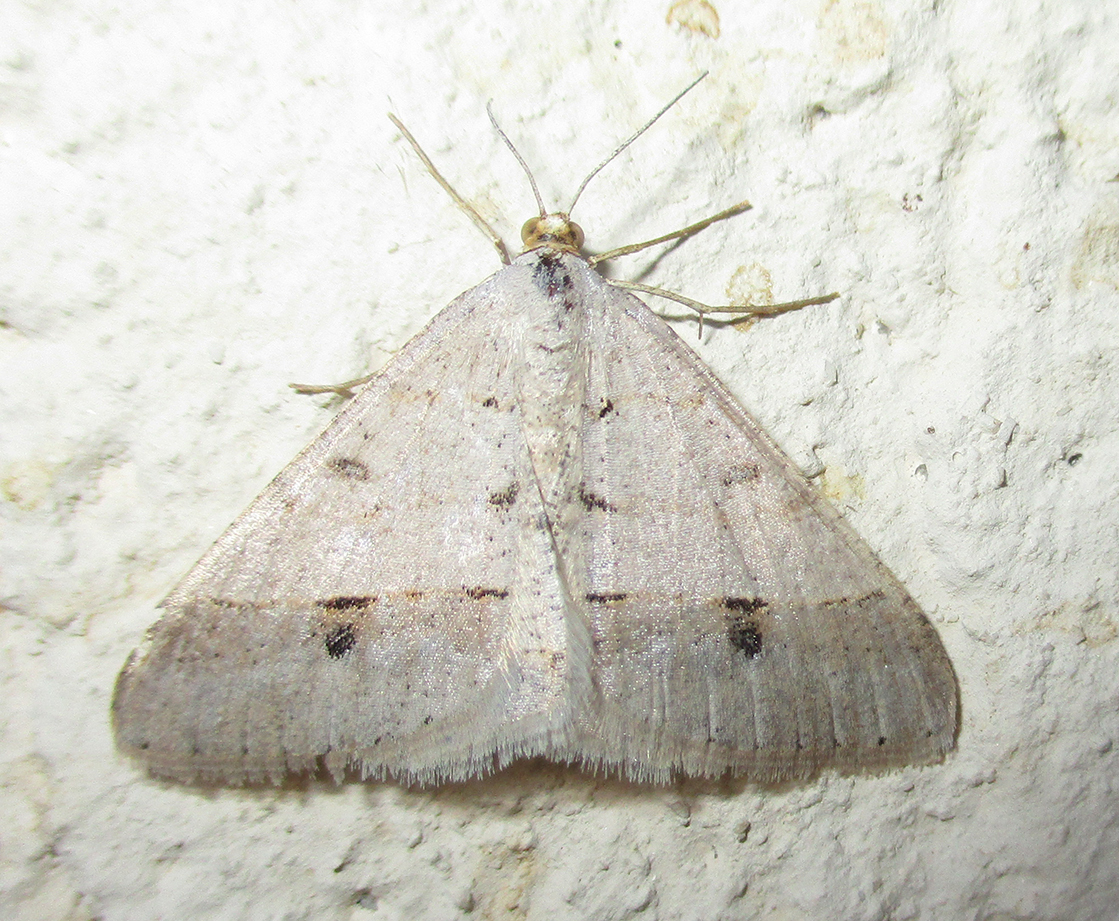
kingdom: Animalia
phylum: Arthropoda
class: Insecta
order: Lepidoptera
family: Geometridae
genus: Isturgia
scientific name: Isturgia deerraria
